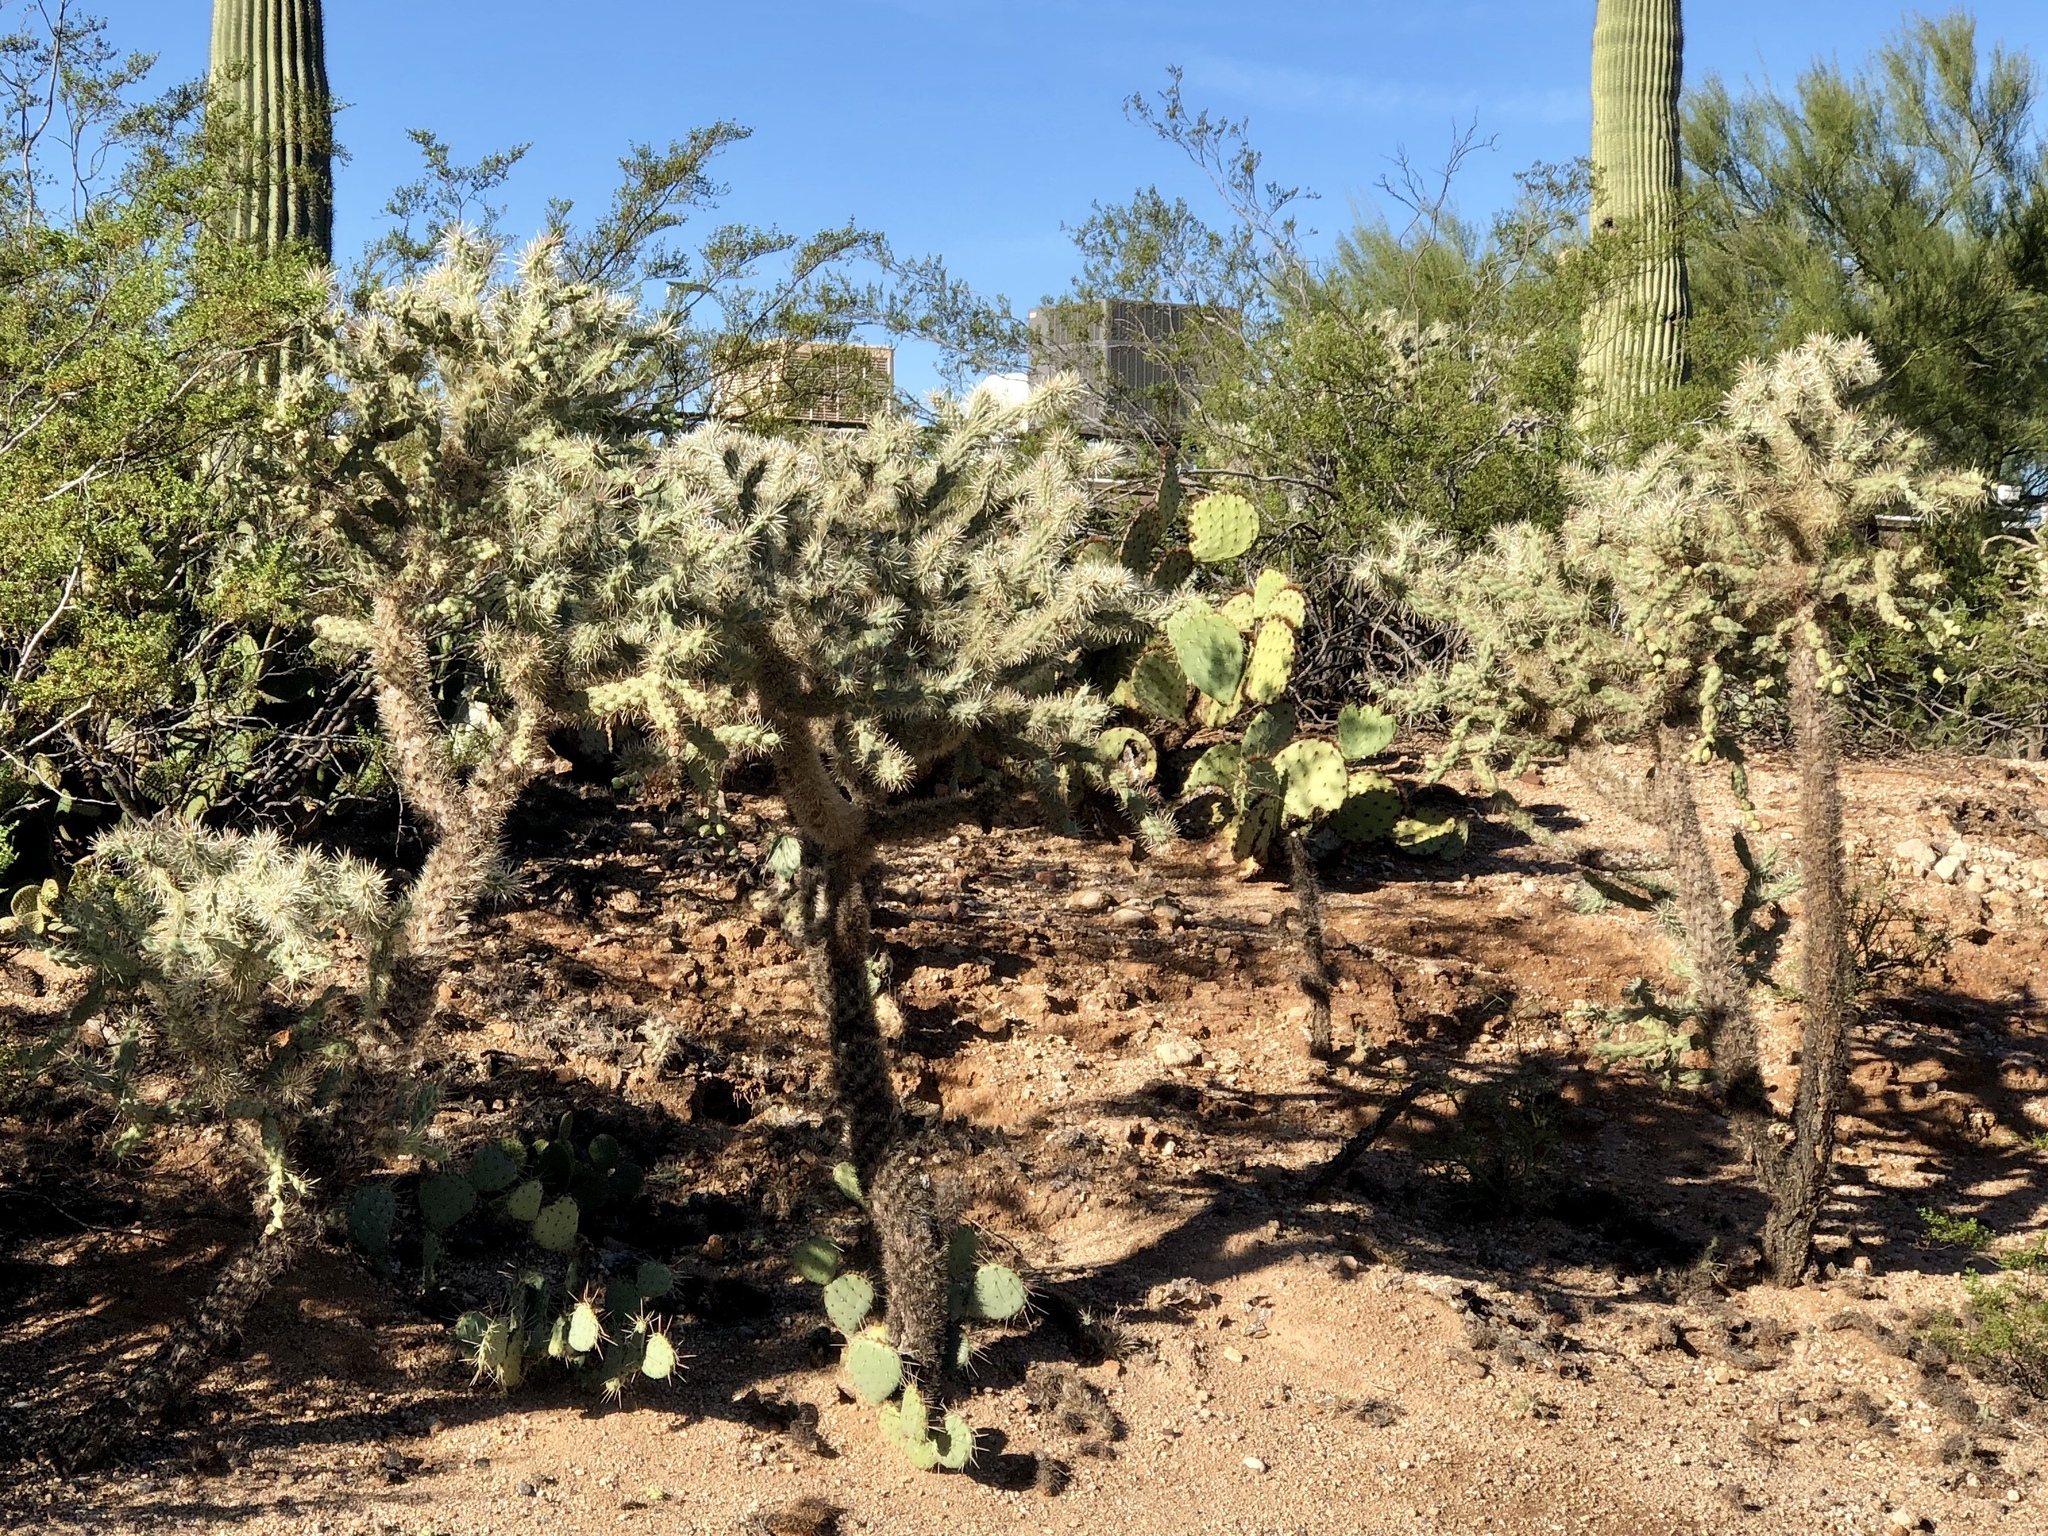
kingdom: Plantae
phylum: Tracheophyta
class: Magnoliopsida
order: Caryophyllales
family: Cactaceae
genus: Cylindropuntia
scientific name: Cylindropuntia fulgida
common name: Jumping cholla
